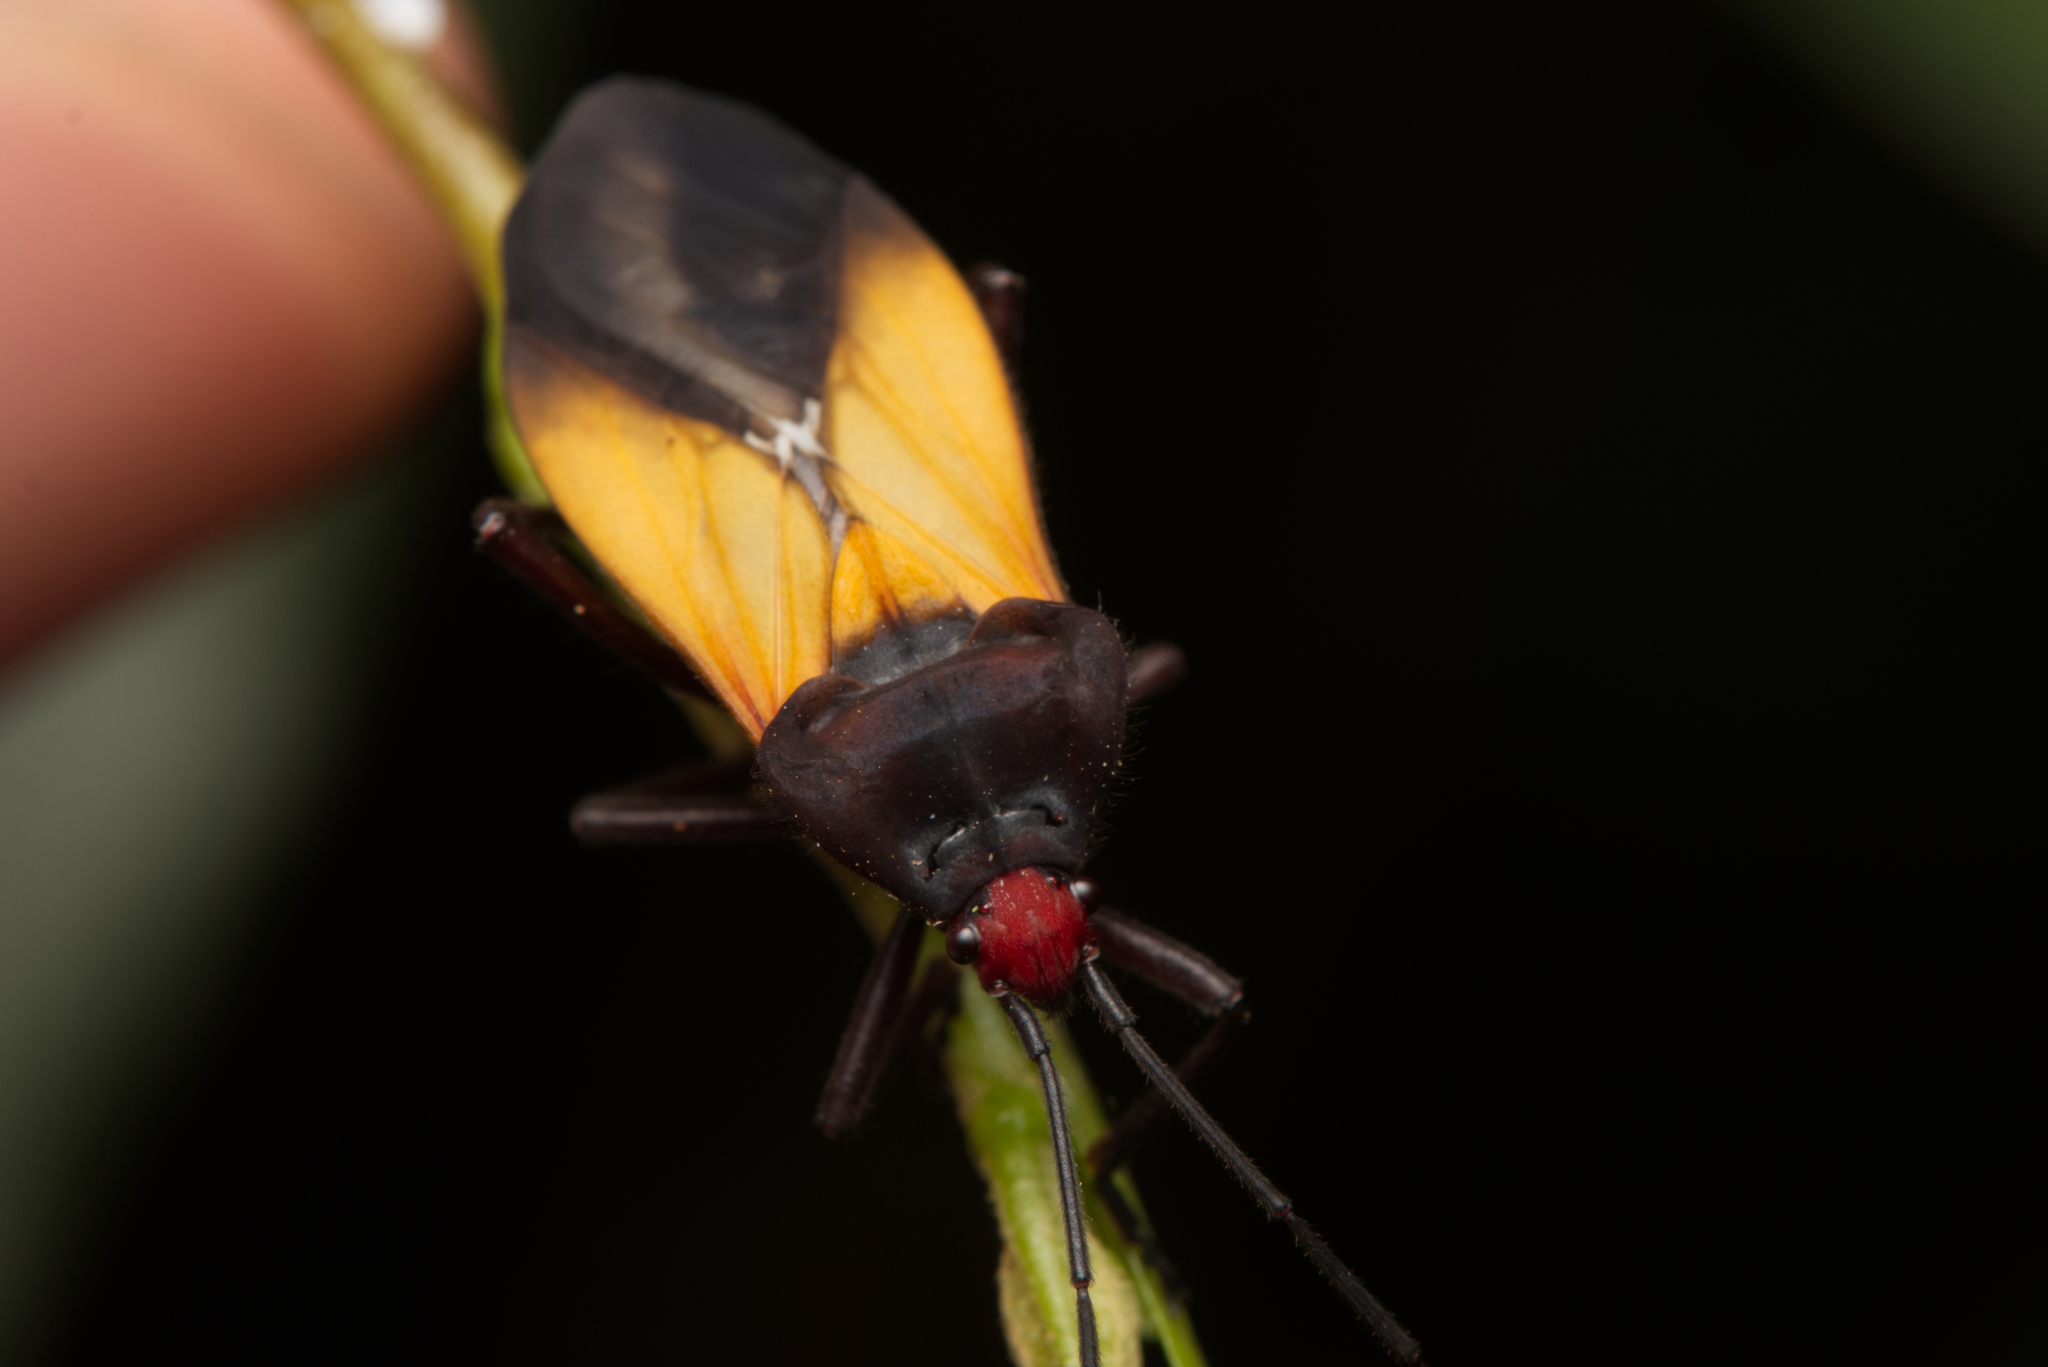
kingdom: Animalia
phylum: Arthropoda
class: Insecta
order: Hemiptera
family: Lygaeidae
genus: Oncopeltus
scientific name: Oncopeltus sordidus
